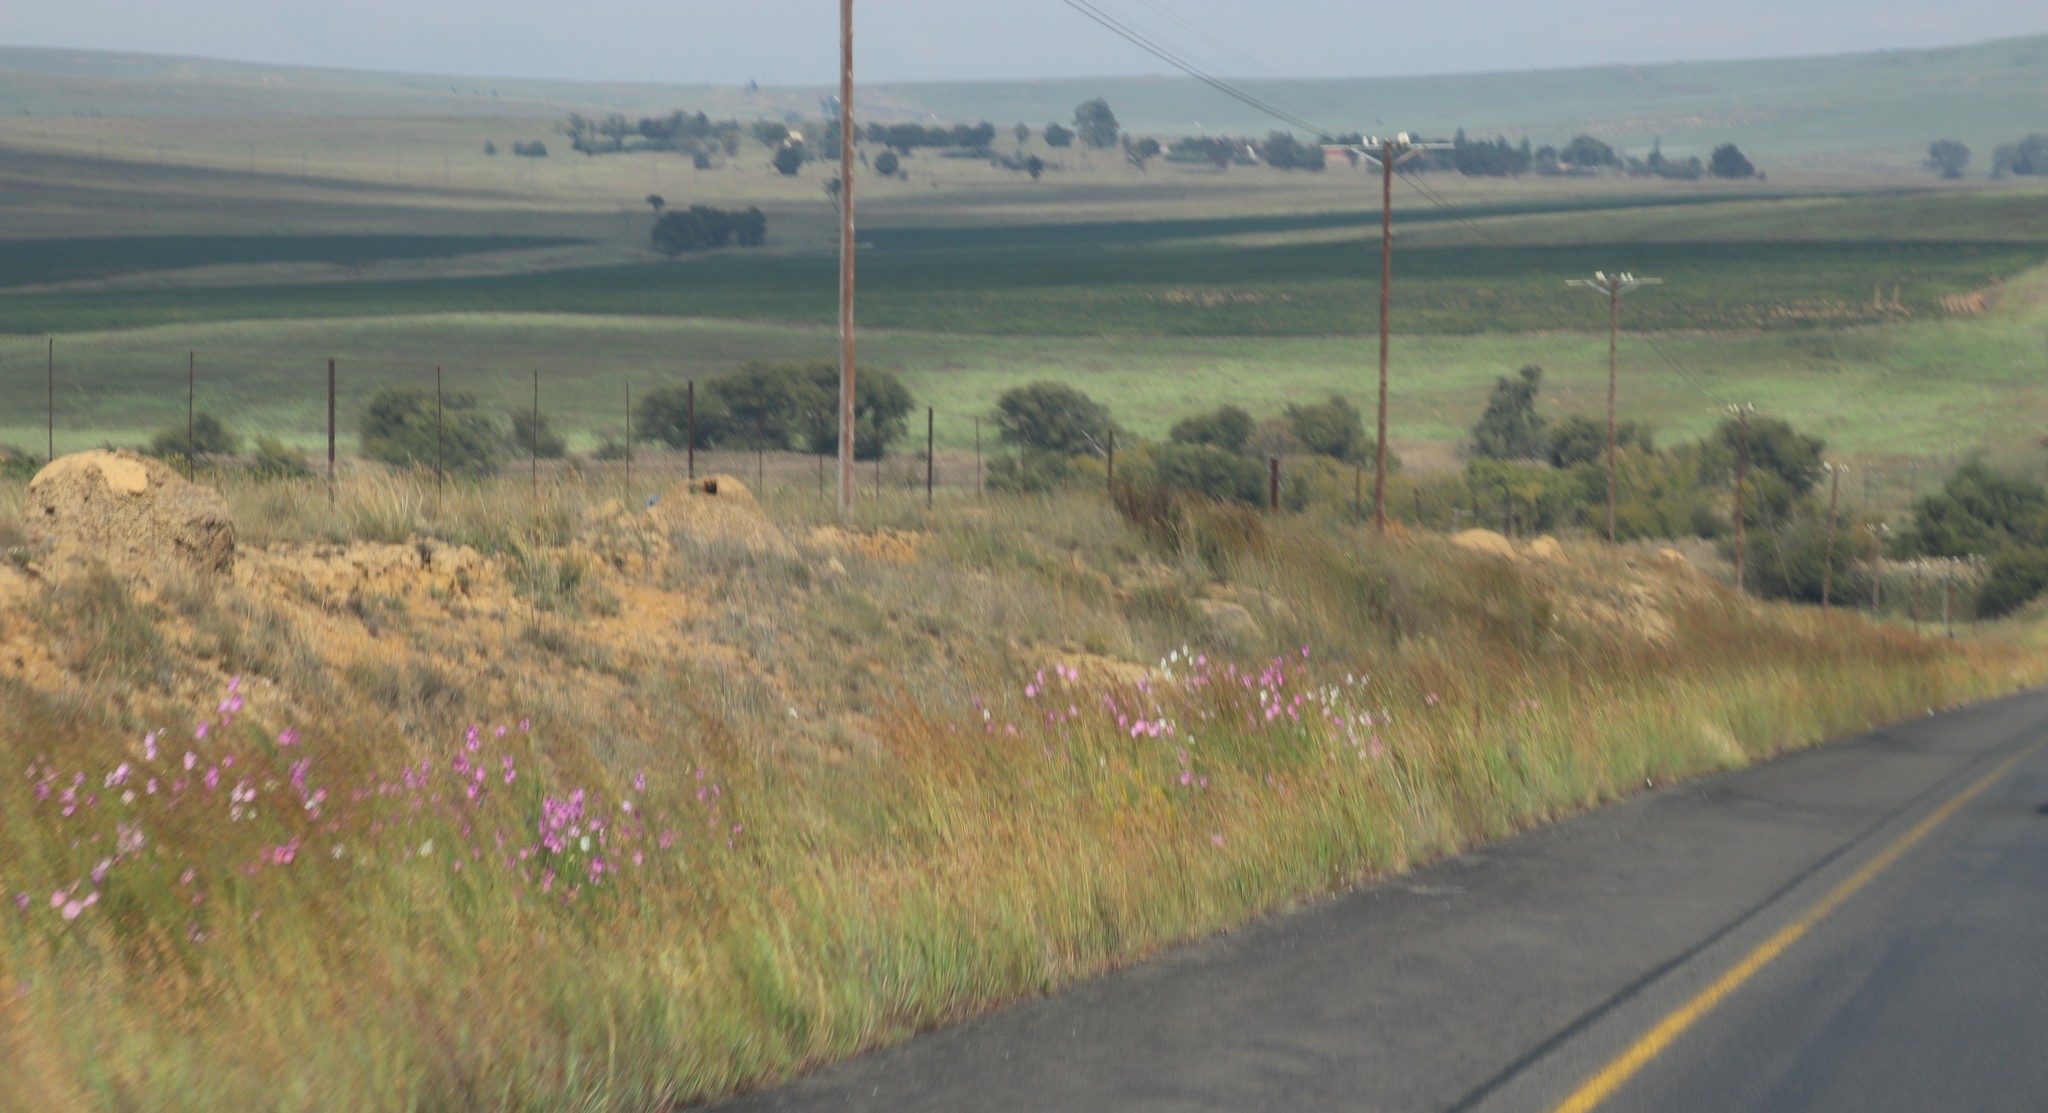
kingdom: Plantae
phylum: Tracheophyta
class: Magnoliopsida
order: Asterales
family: Asteraceae
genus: Cosmos
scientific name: Cosmos bipinnatus
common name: Garden cosmos
